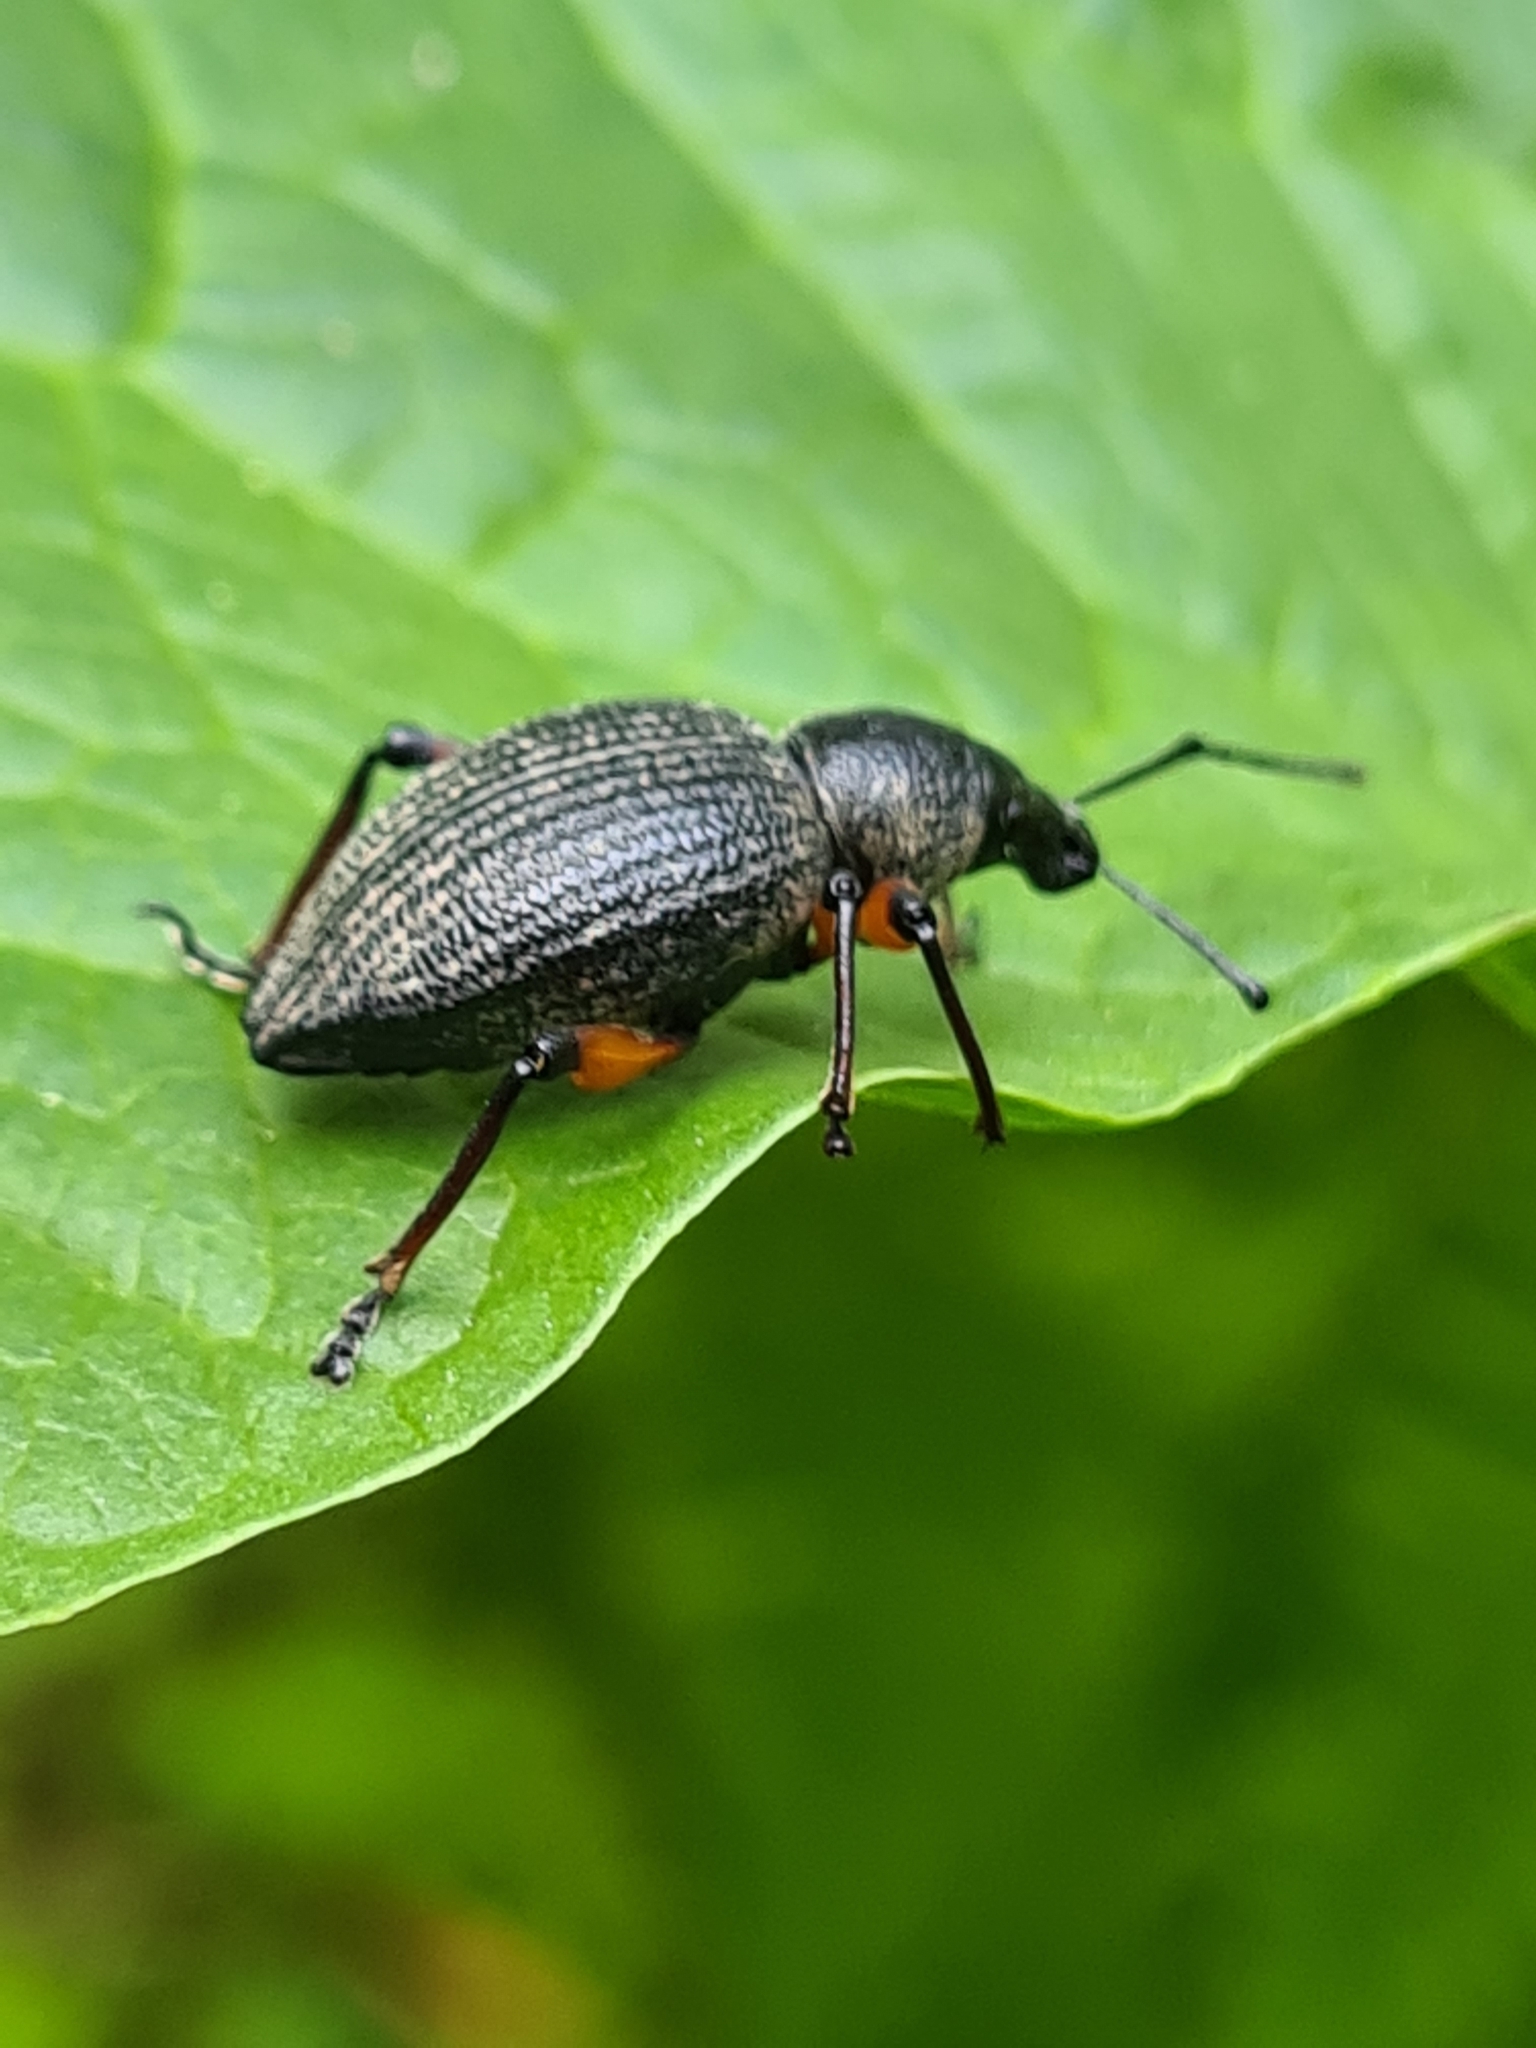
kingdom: Animalia
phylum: Arthropoda
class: Insecta
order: Coleoptera
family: Curculionidae
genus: Otiorhynchus
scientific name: Otiorhynchus sensitivus
